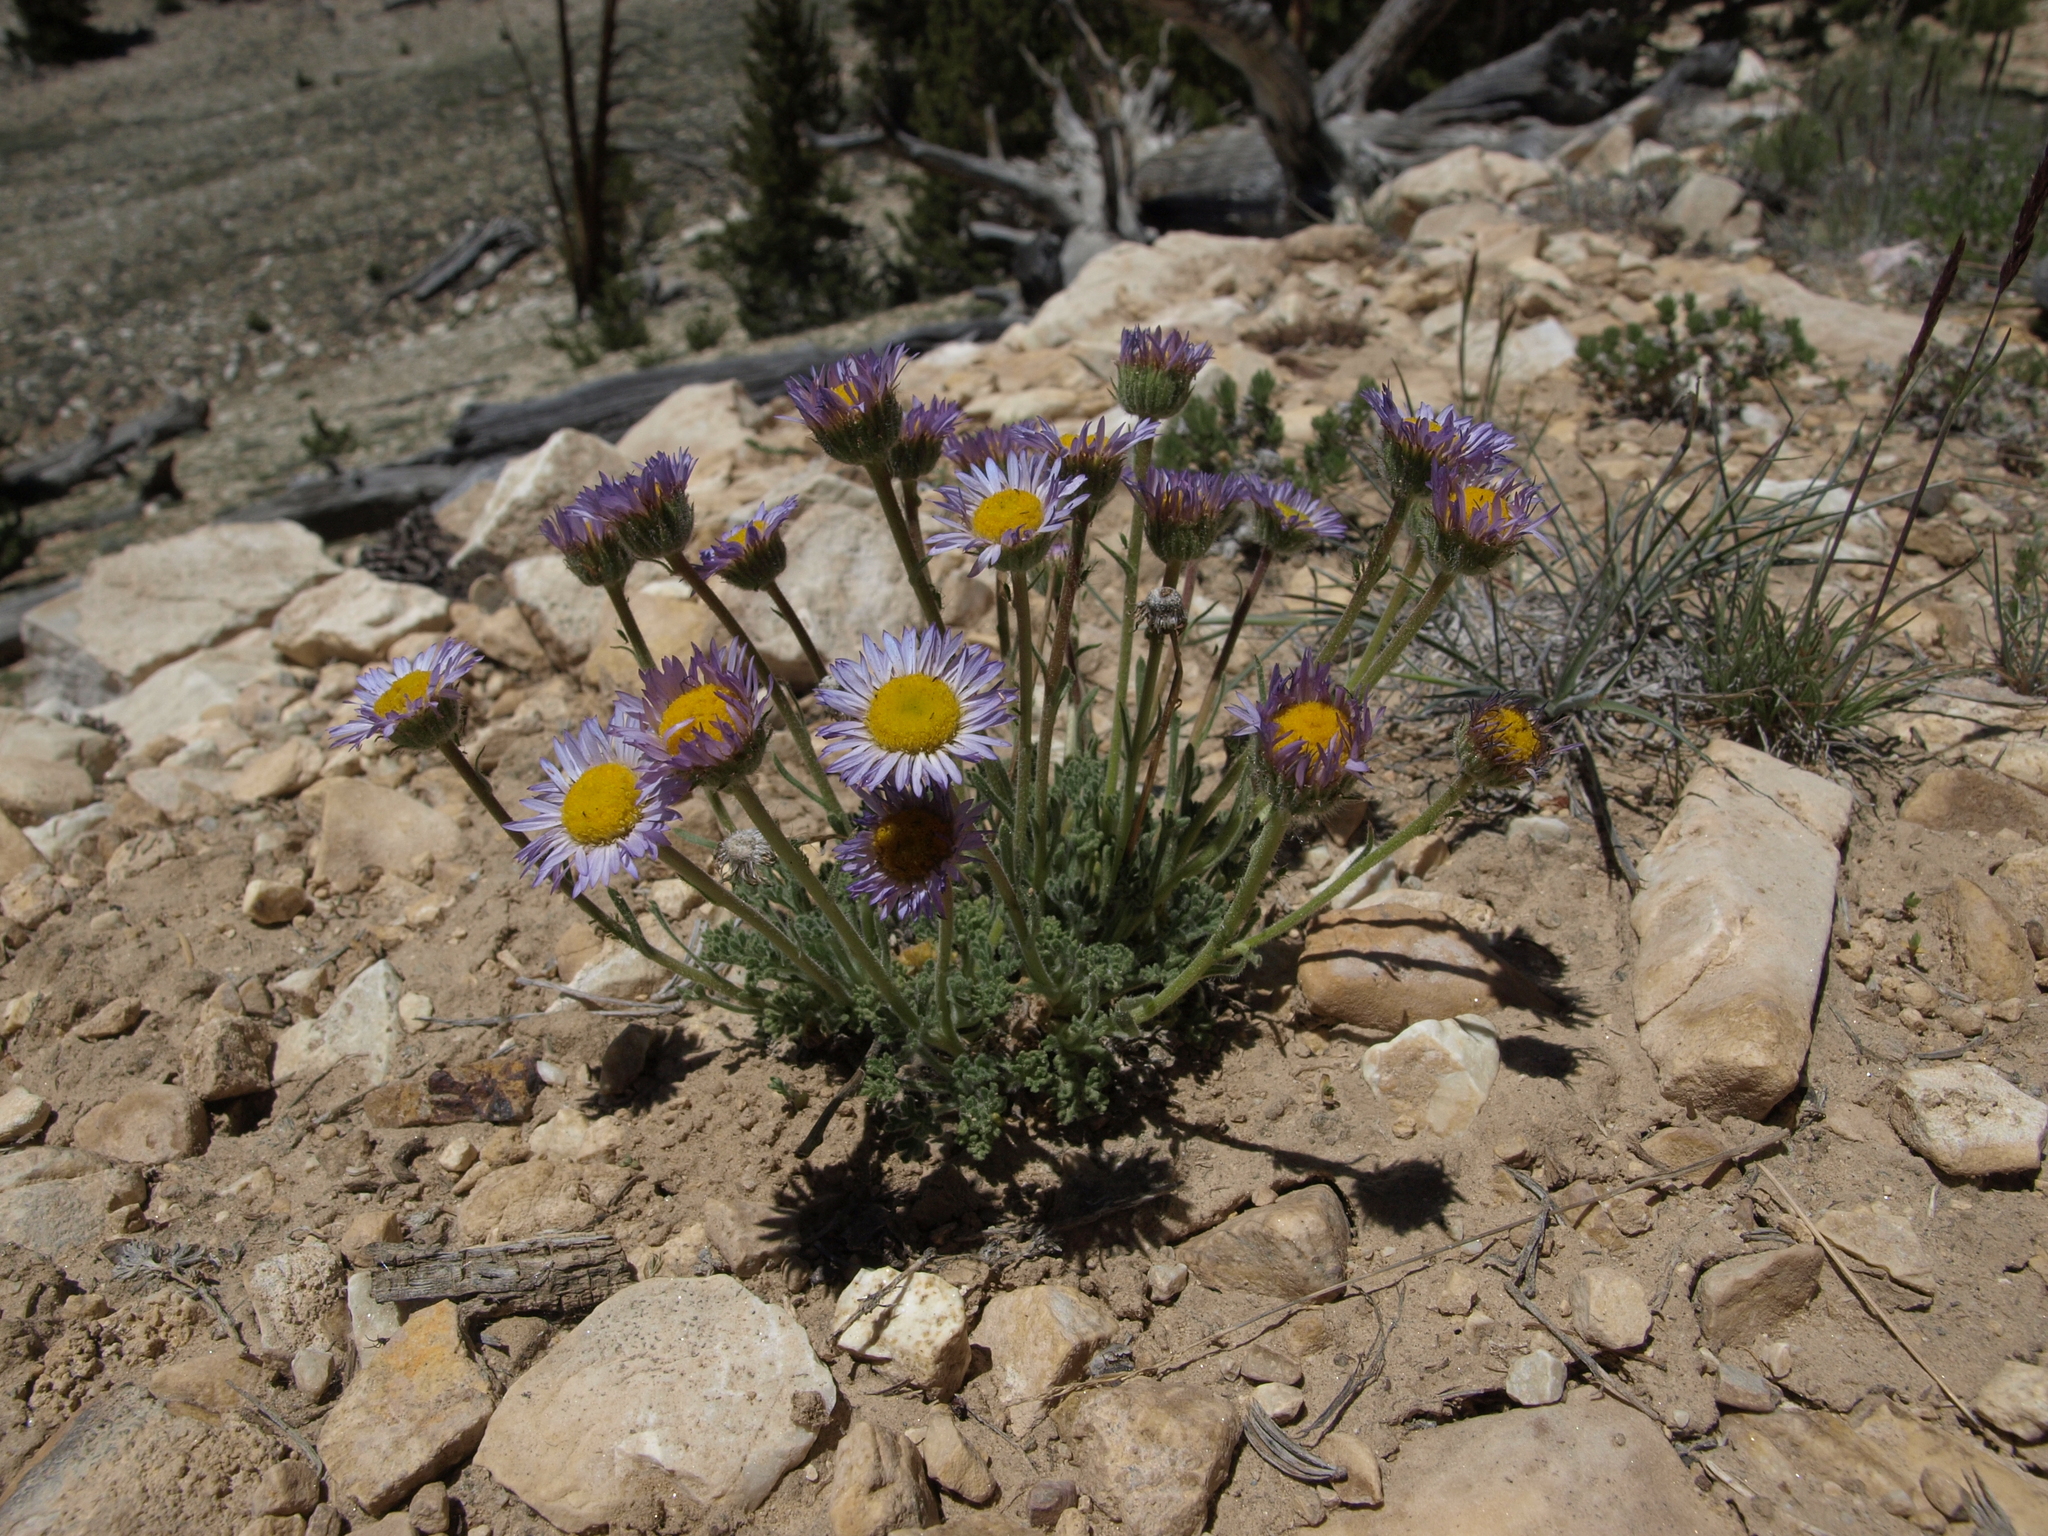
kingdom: Plantae
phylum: Tracheophyta
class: Magnoliopsida
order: Asterales
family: Asteraceae
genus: Erigeron
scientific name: Erigeron compositus
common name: Dwarf mountain fleabane
